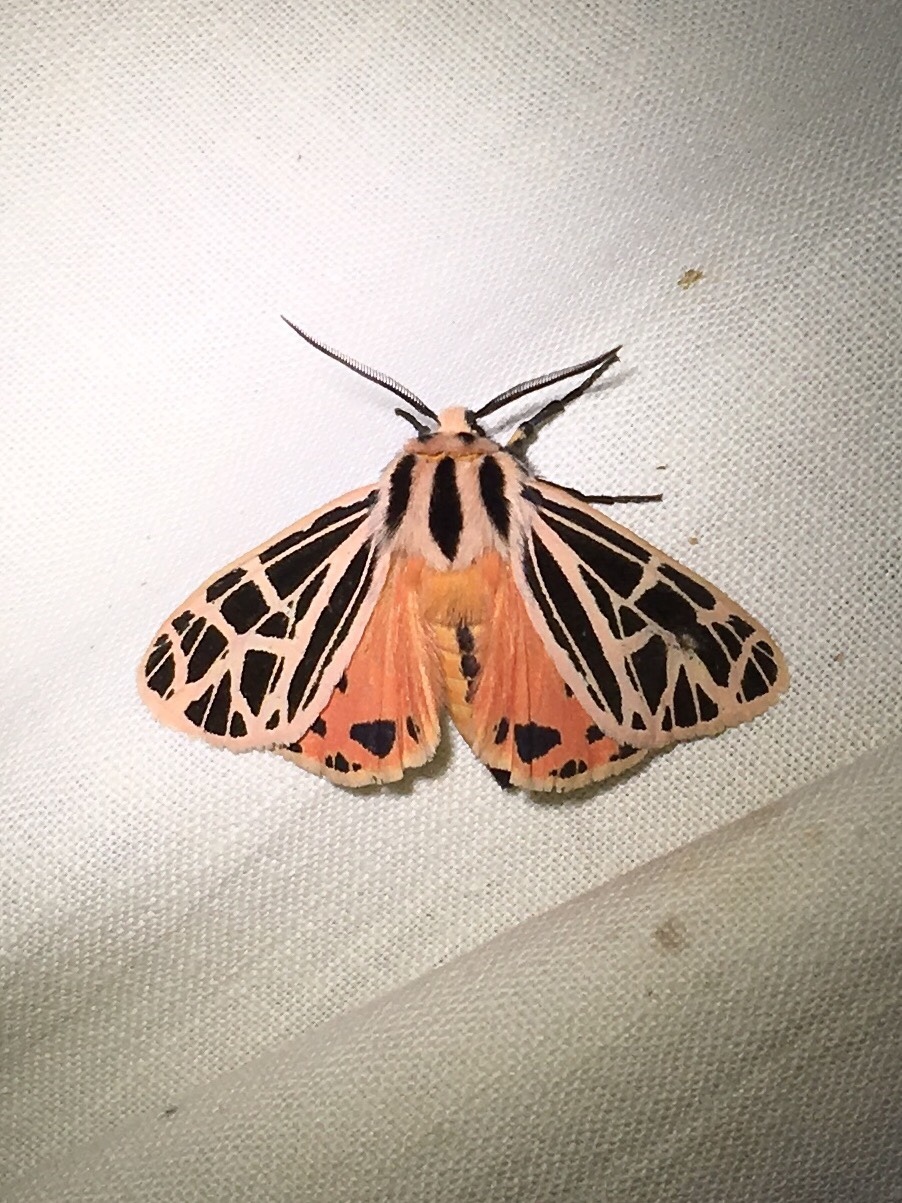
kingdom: Animalia
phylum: Arthropoda
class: Insecta
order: Lepidoptera
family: Erebidae
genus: Grammia
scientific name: Grammia parthenice
